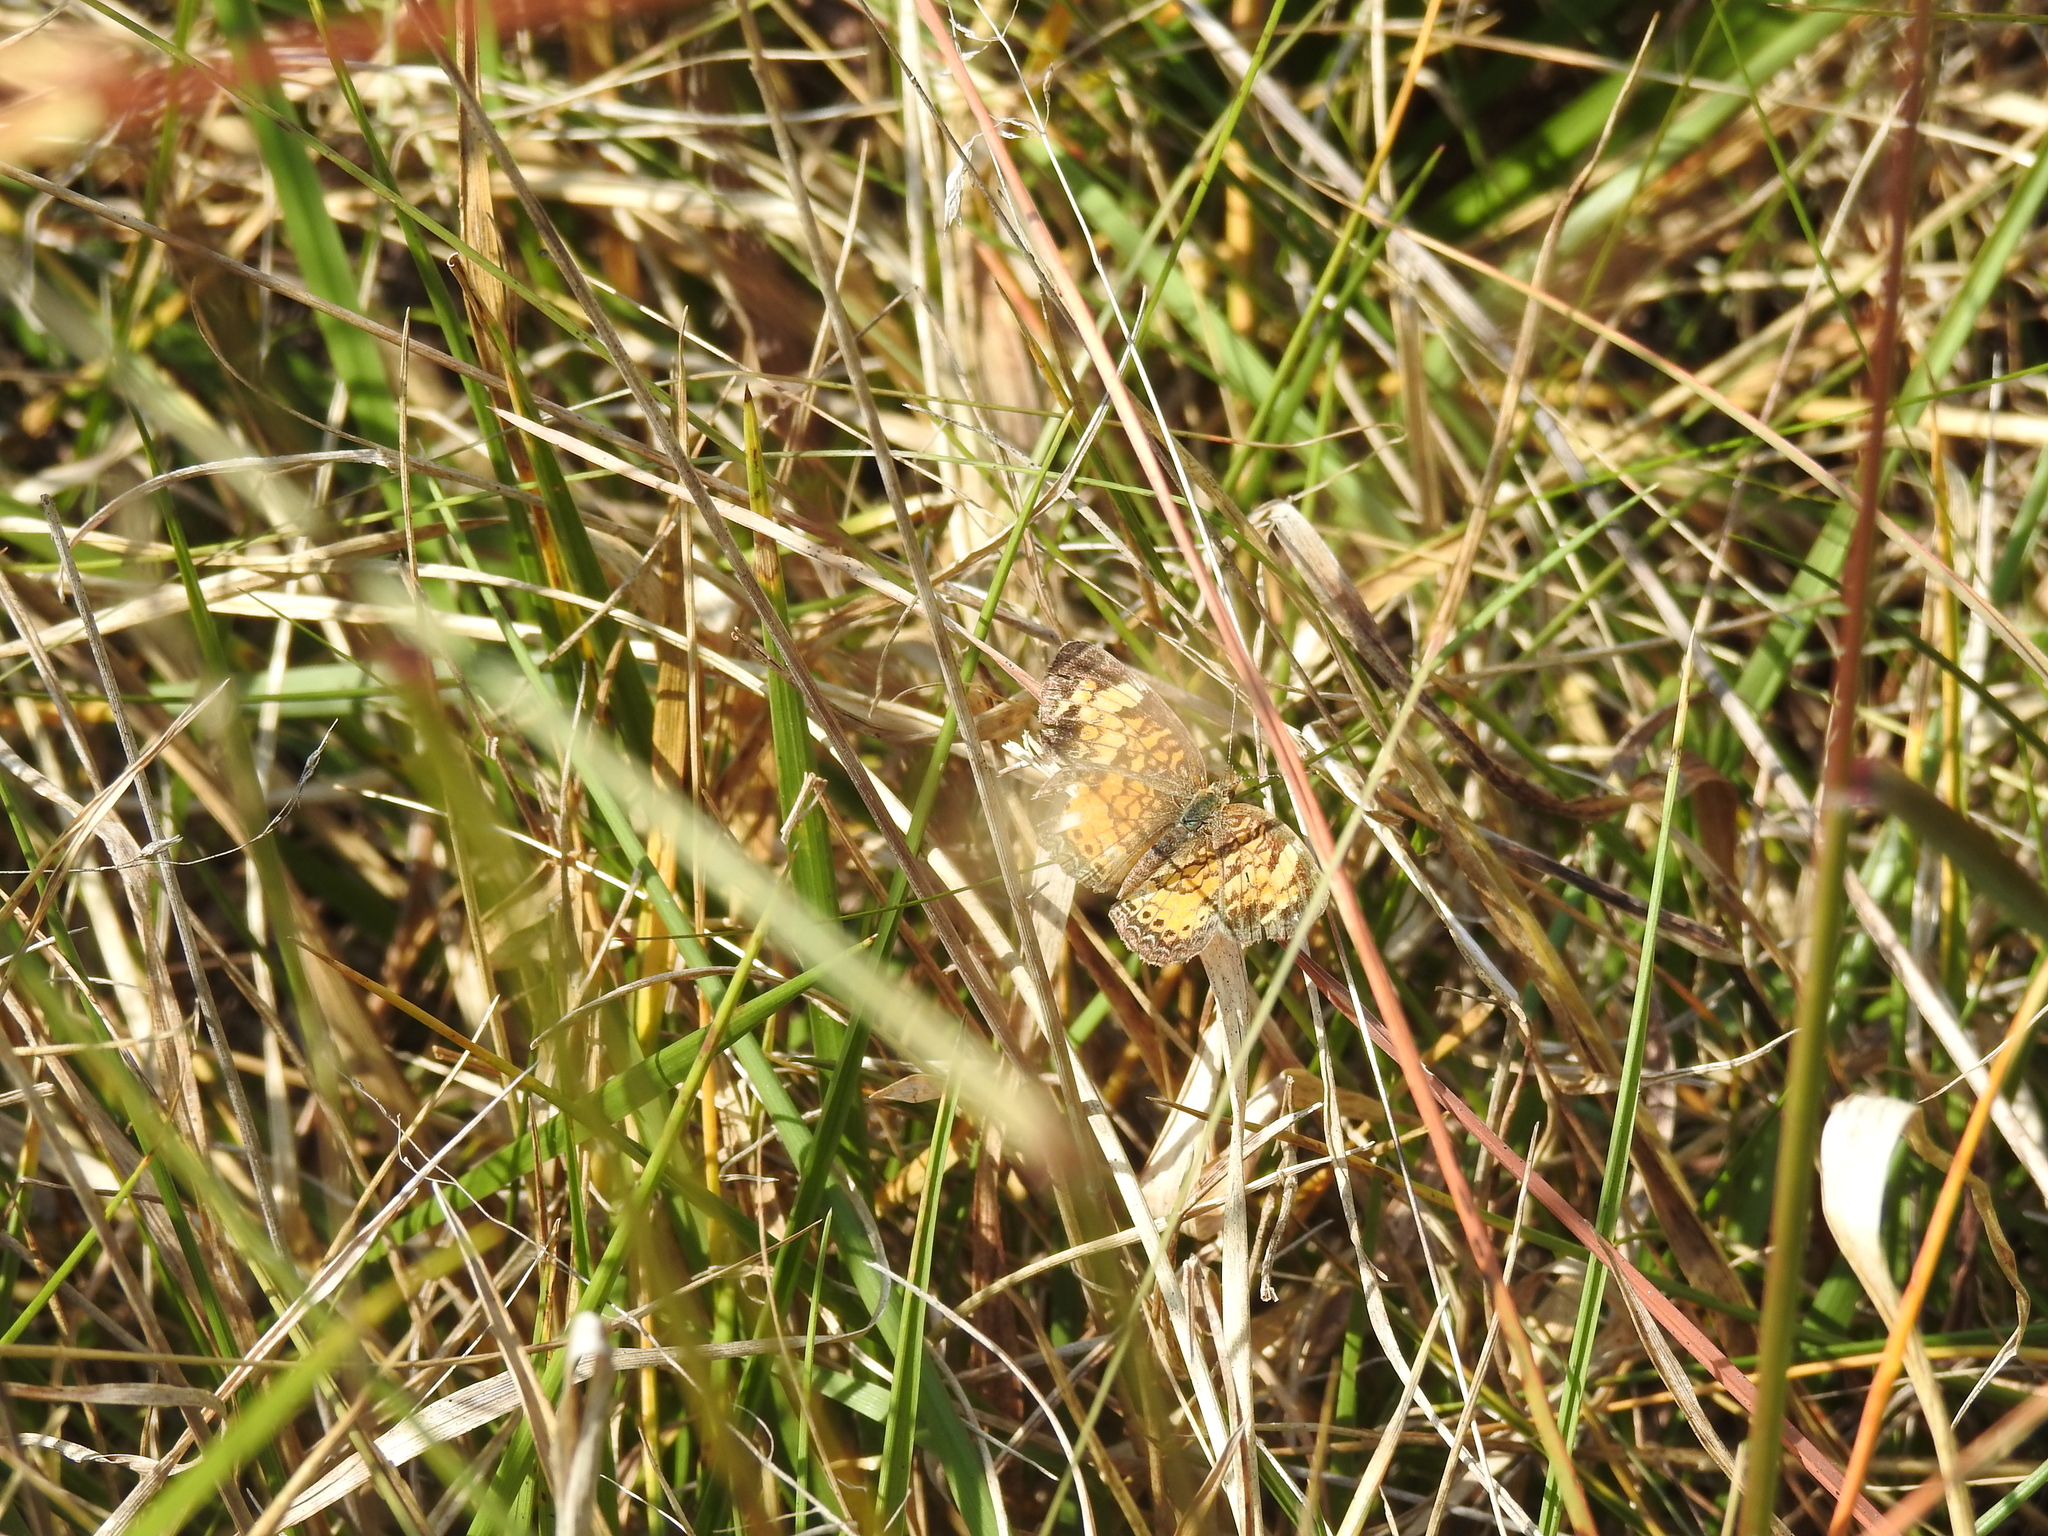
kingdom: Animalia
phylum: Arthropoda
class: Insecta
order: Lepidoptera
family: Nymphalidae
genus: Phyciodes
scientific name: Phyciodes tharos
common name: Pearl crescent
